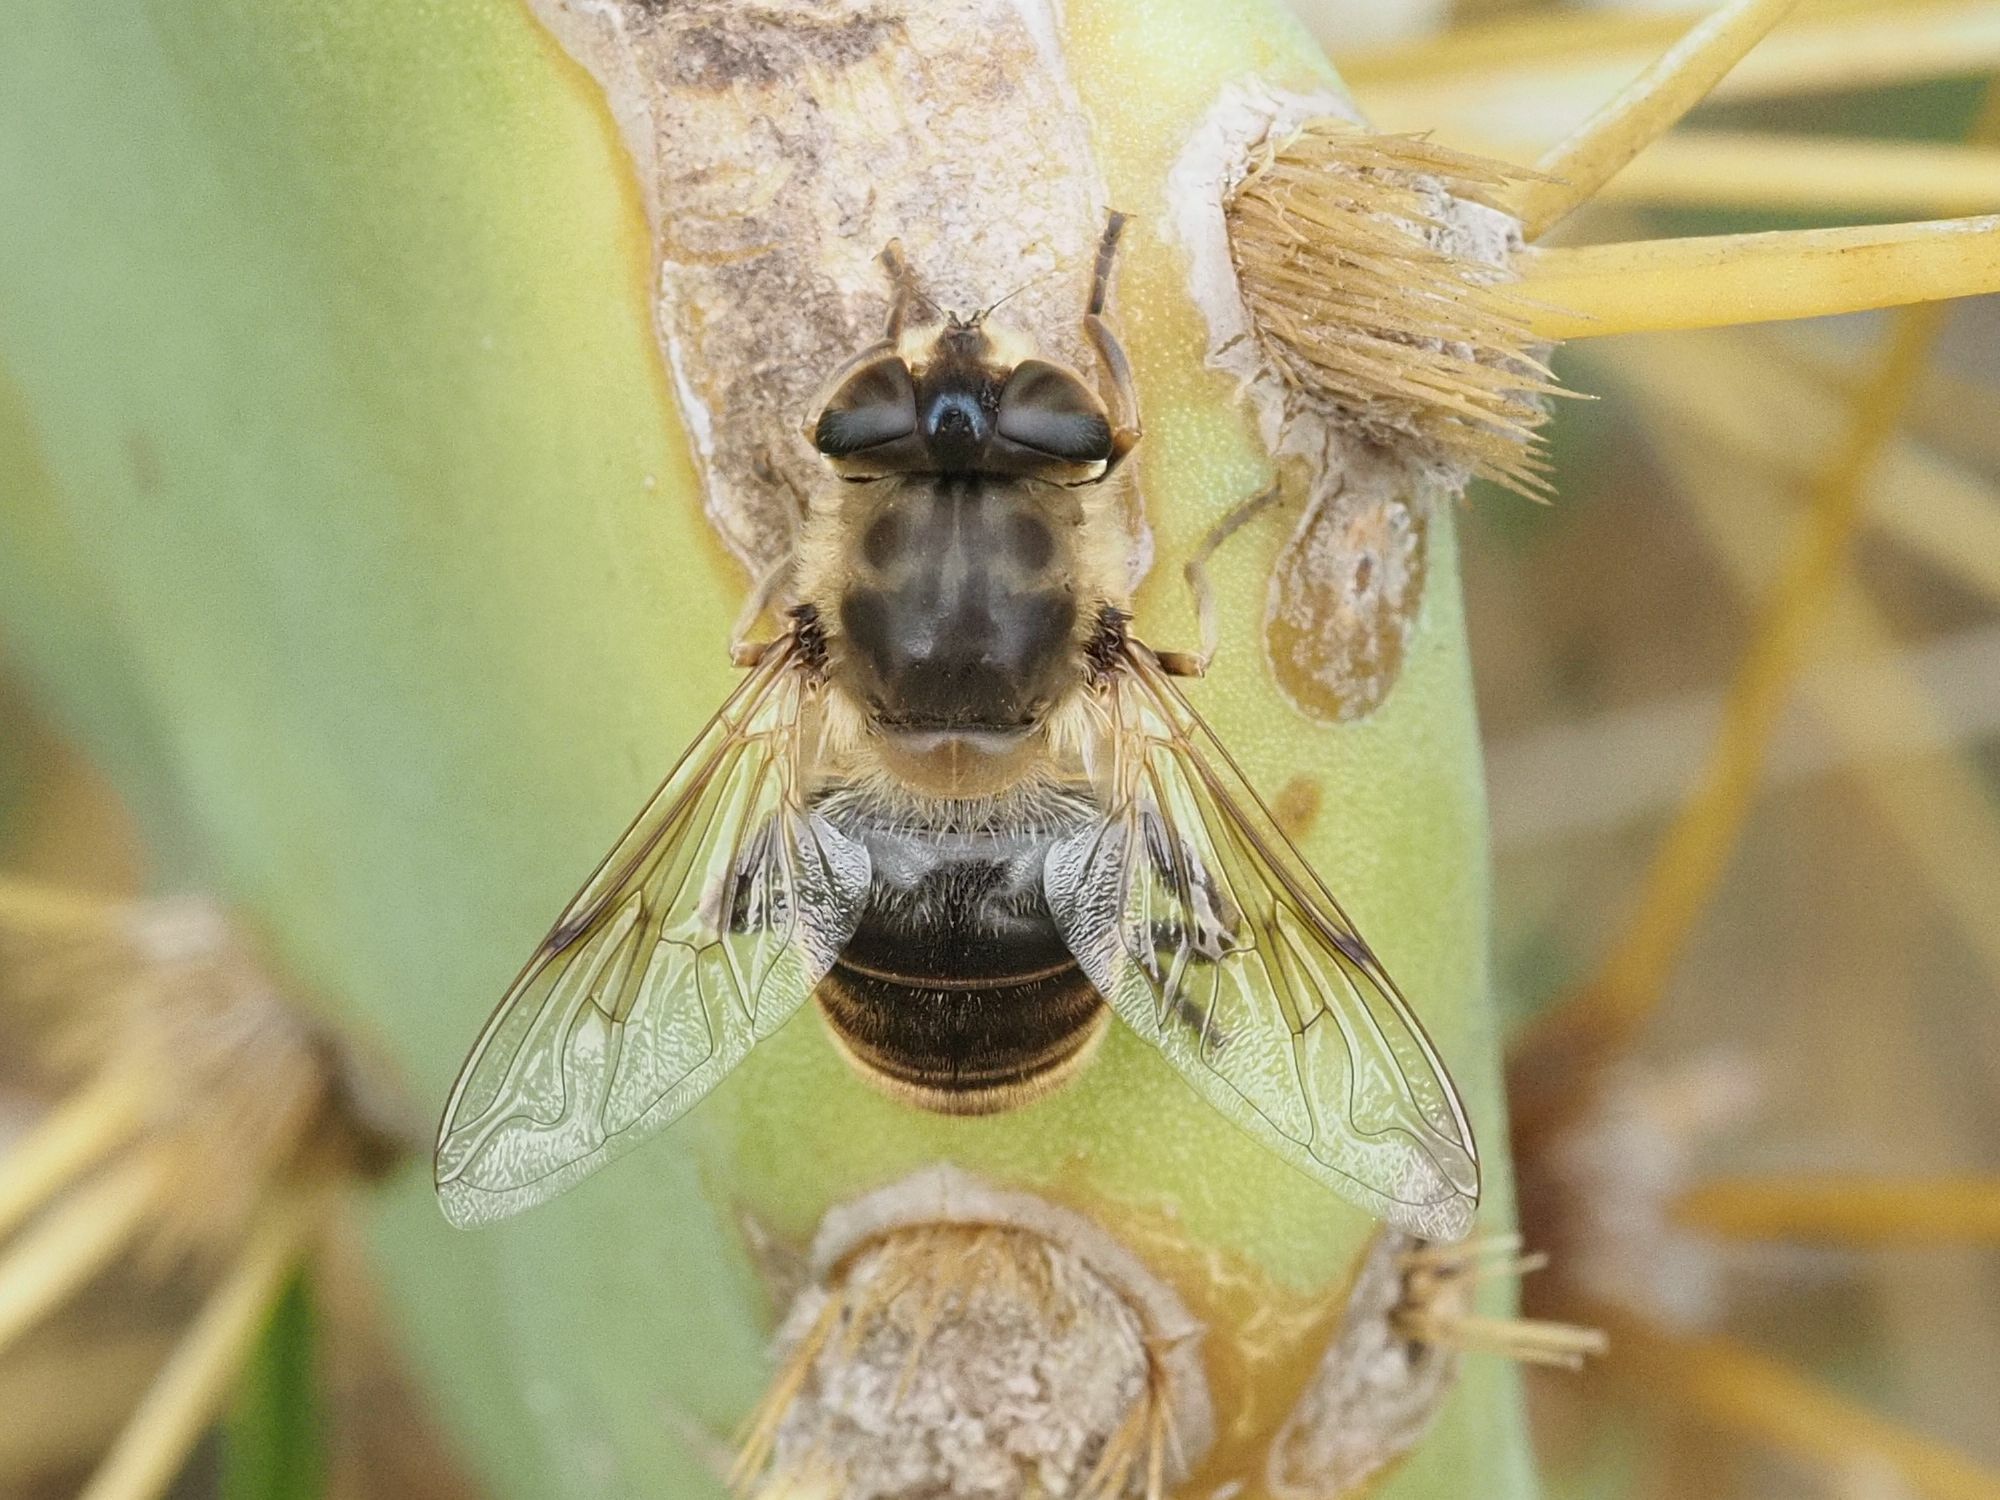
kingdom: Animalia
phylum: Arthropoda
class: Insecta
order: Diptera
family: Syrphidae
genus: Eristalis
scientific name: Eristalis tenax
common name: Drone fly
